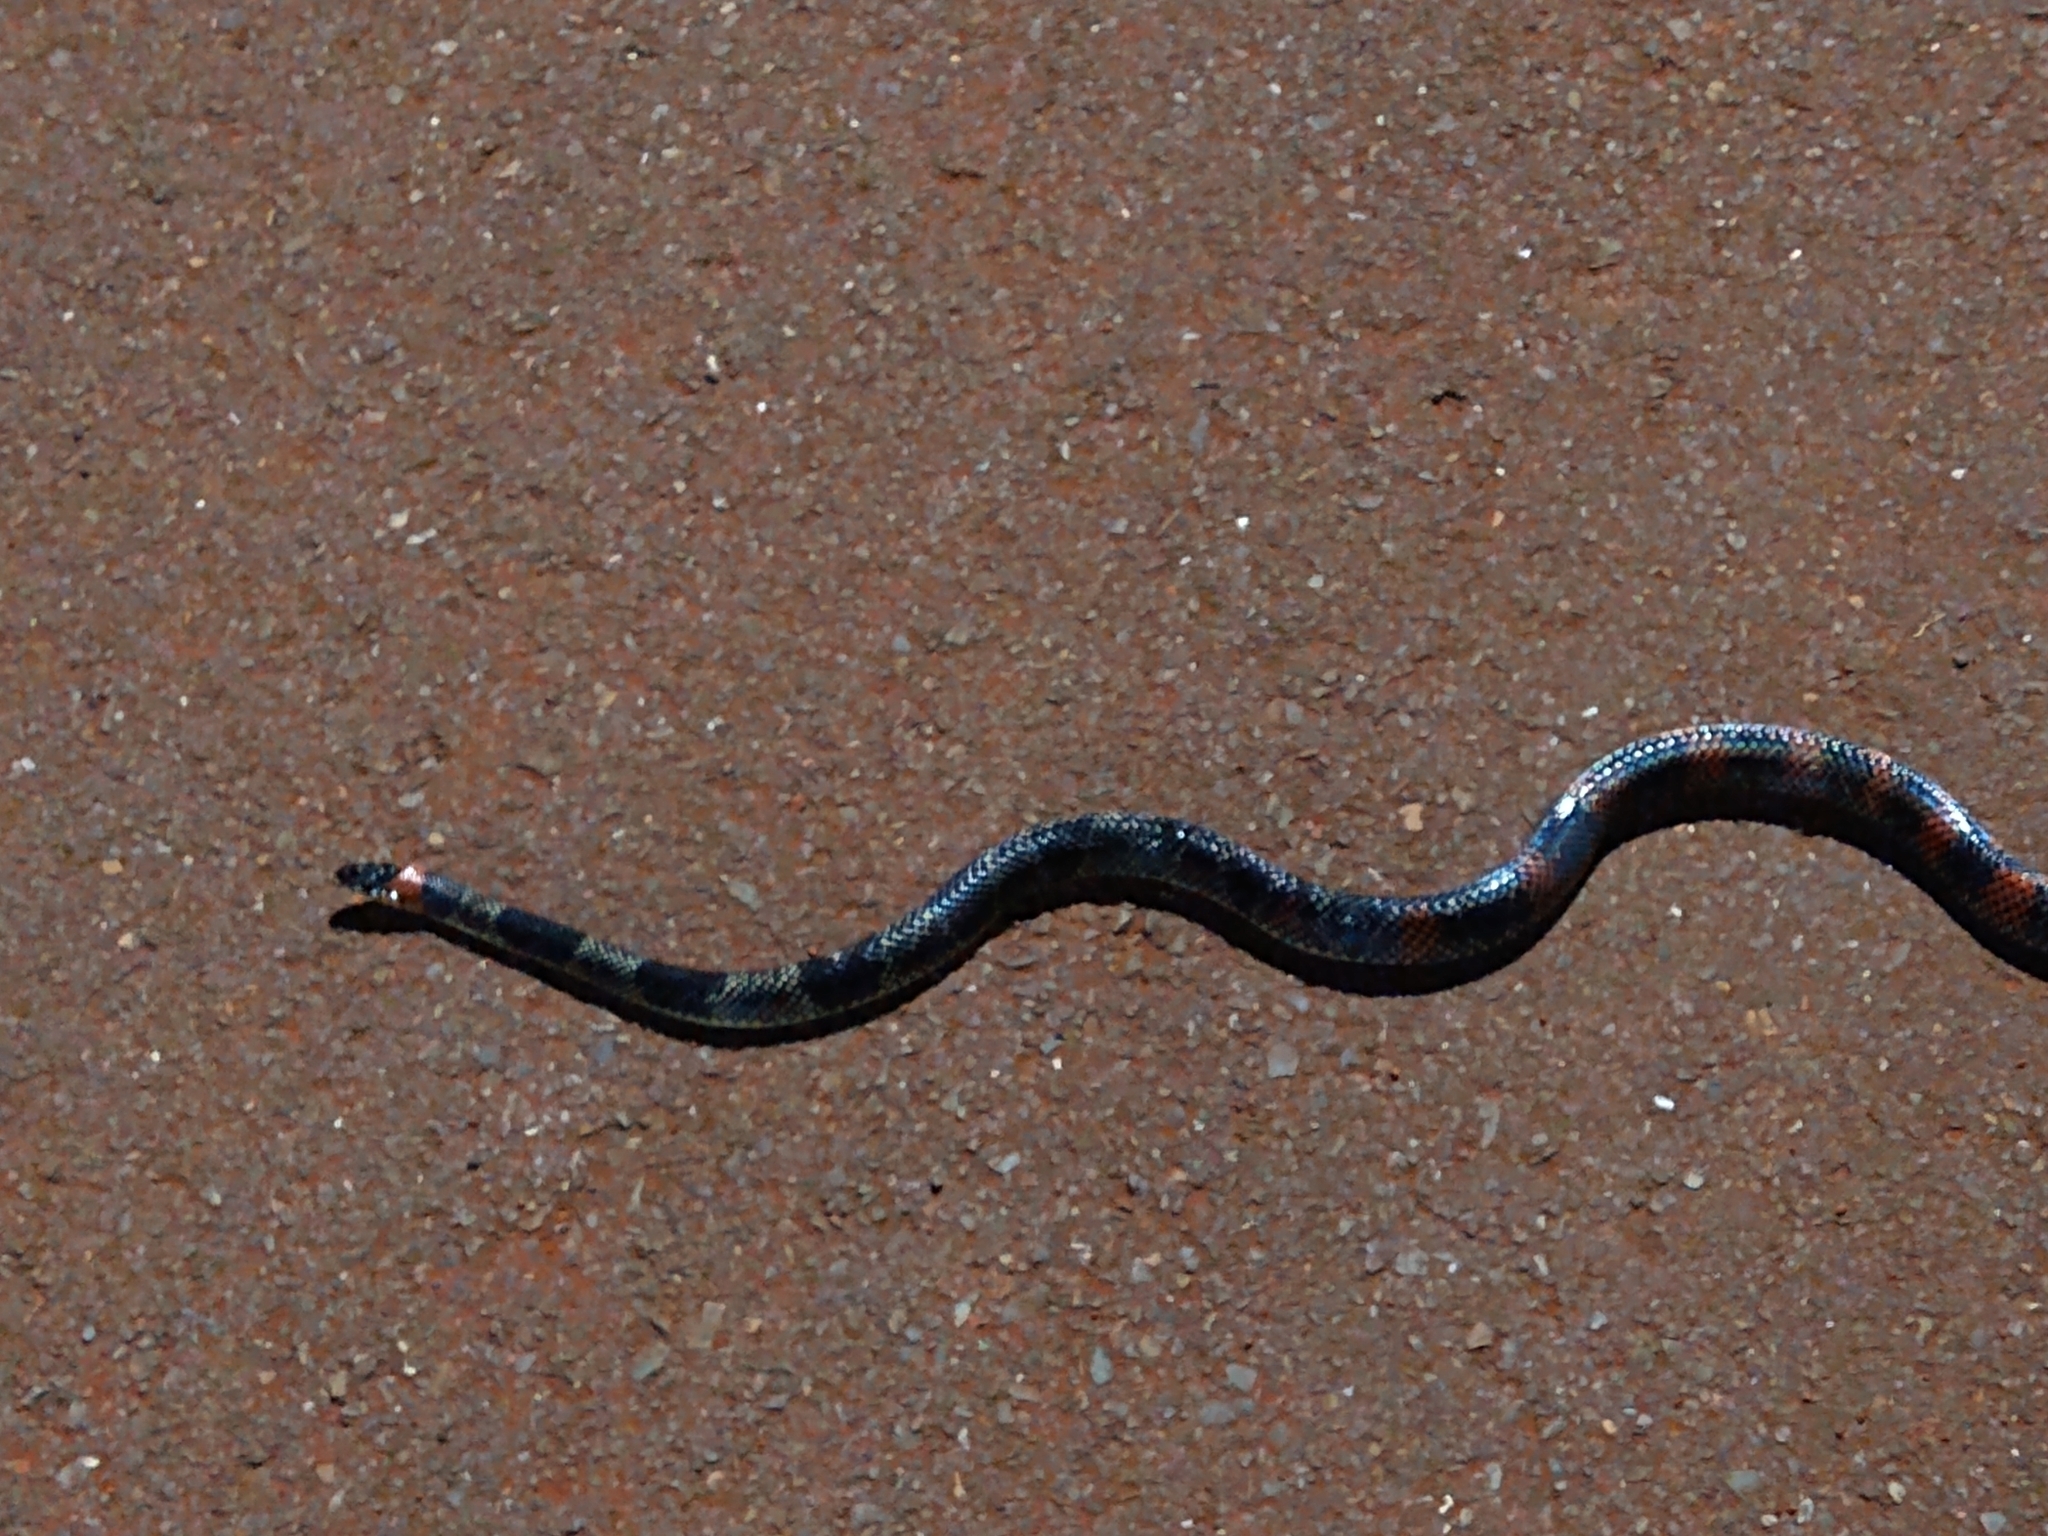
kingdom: Animalia
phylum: Chordata
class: Squamata
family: Colubridae
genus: Oxyrhopus
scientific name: Oxyrhopus rhombifer
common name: Amazon false coral snake
